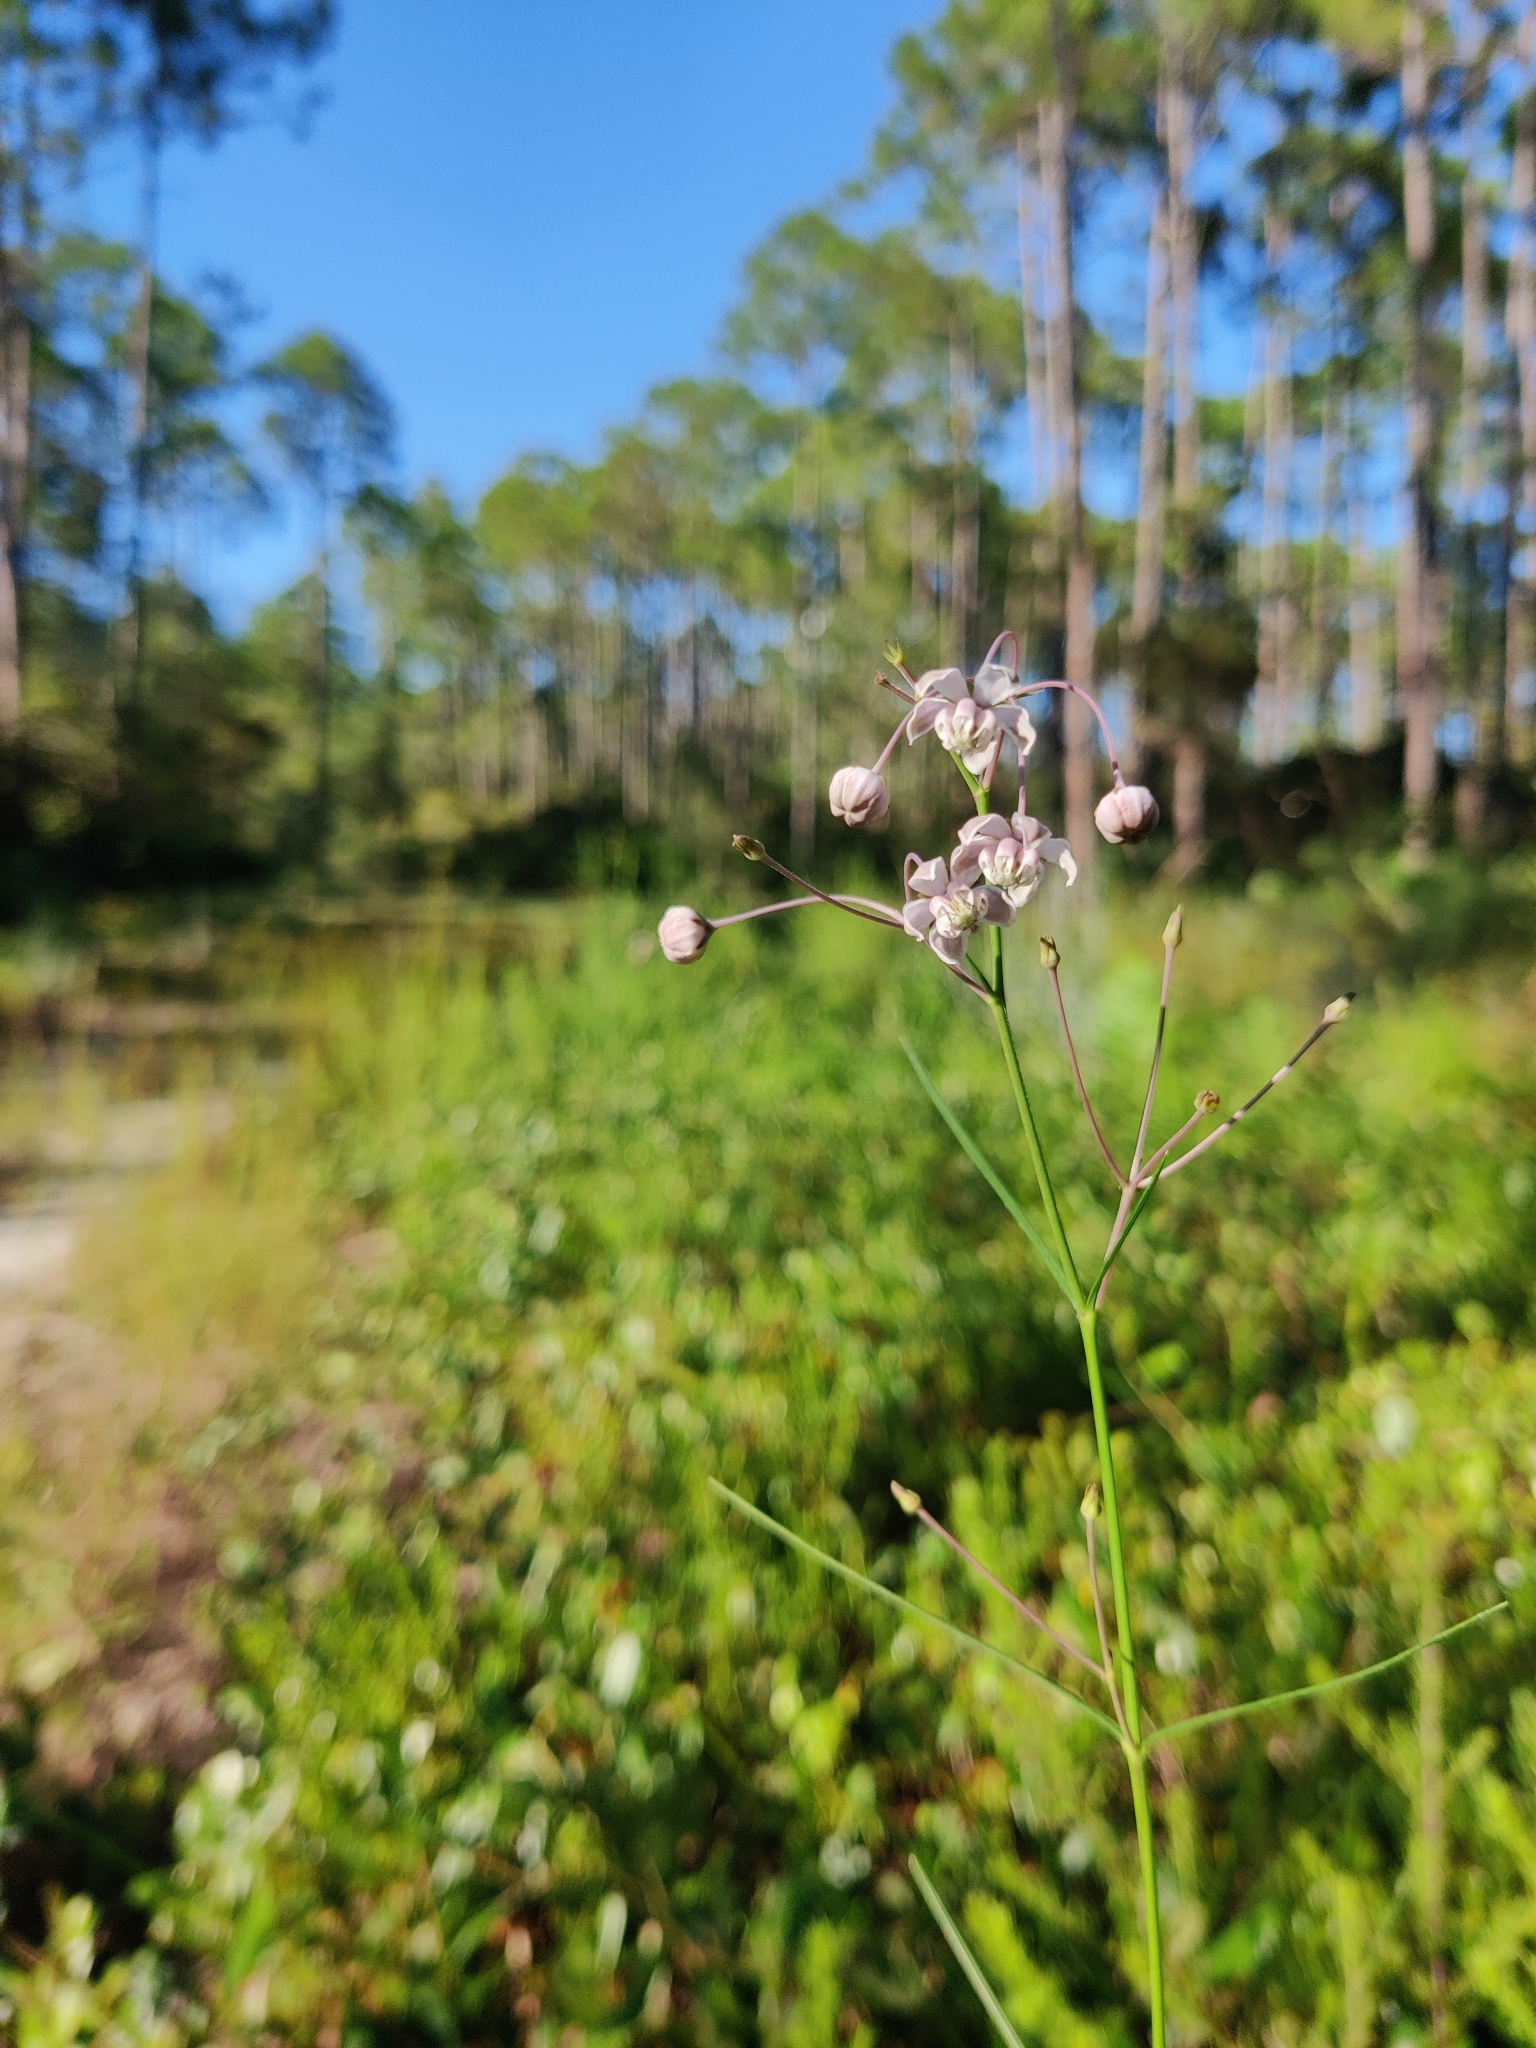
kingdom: Plantae
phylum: Tracheophyta
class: Magnoliopsida
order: Gentianales
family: Apocynaceae
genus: Asclepias
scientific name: Asclepias cinerea
